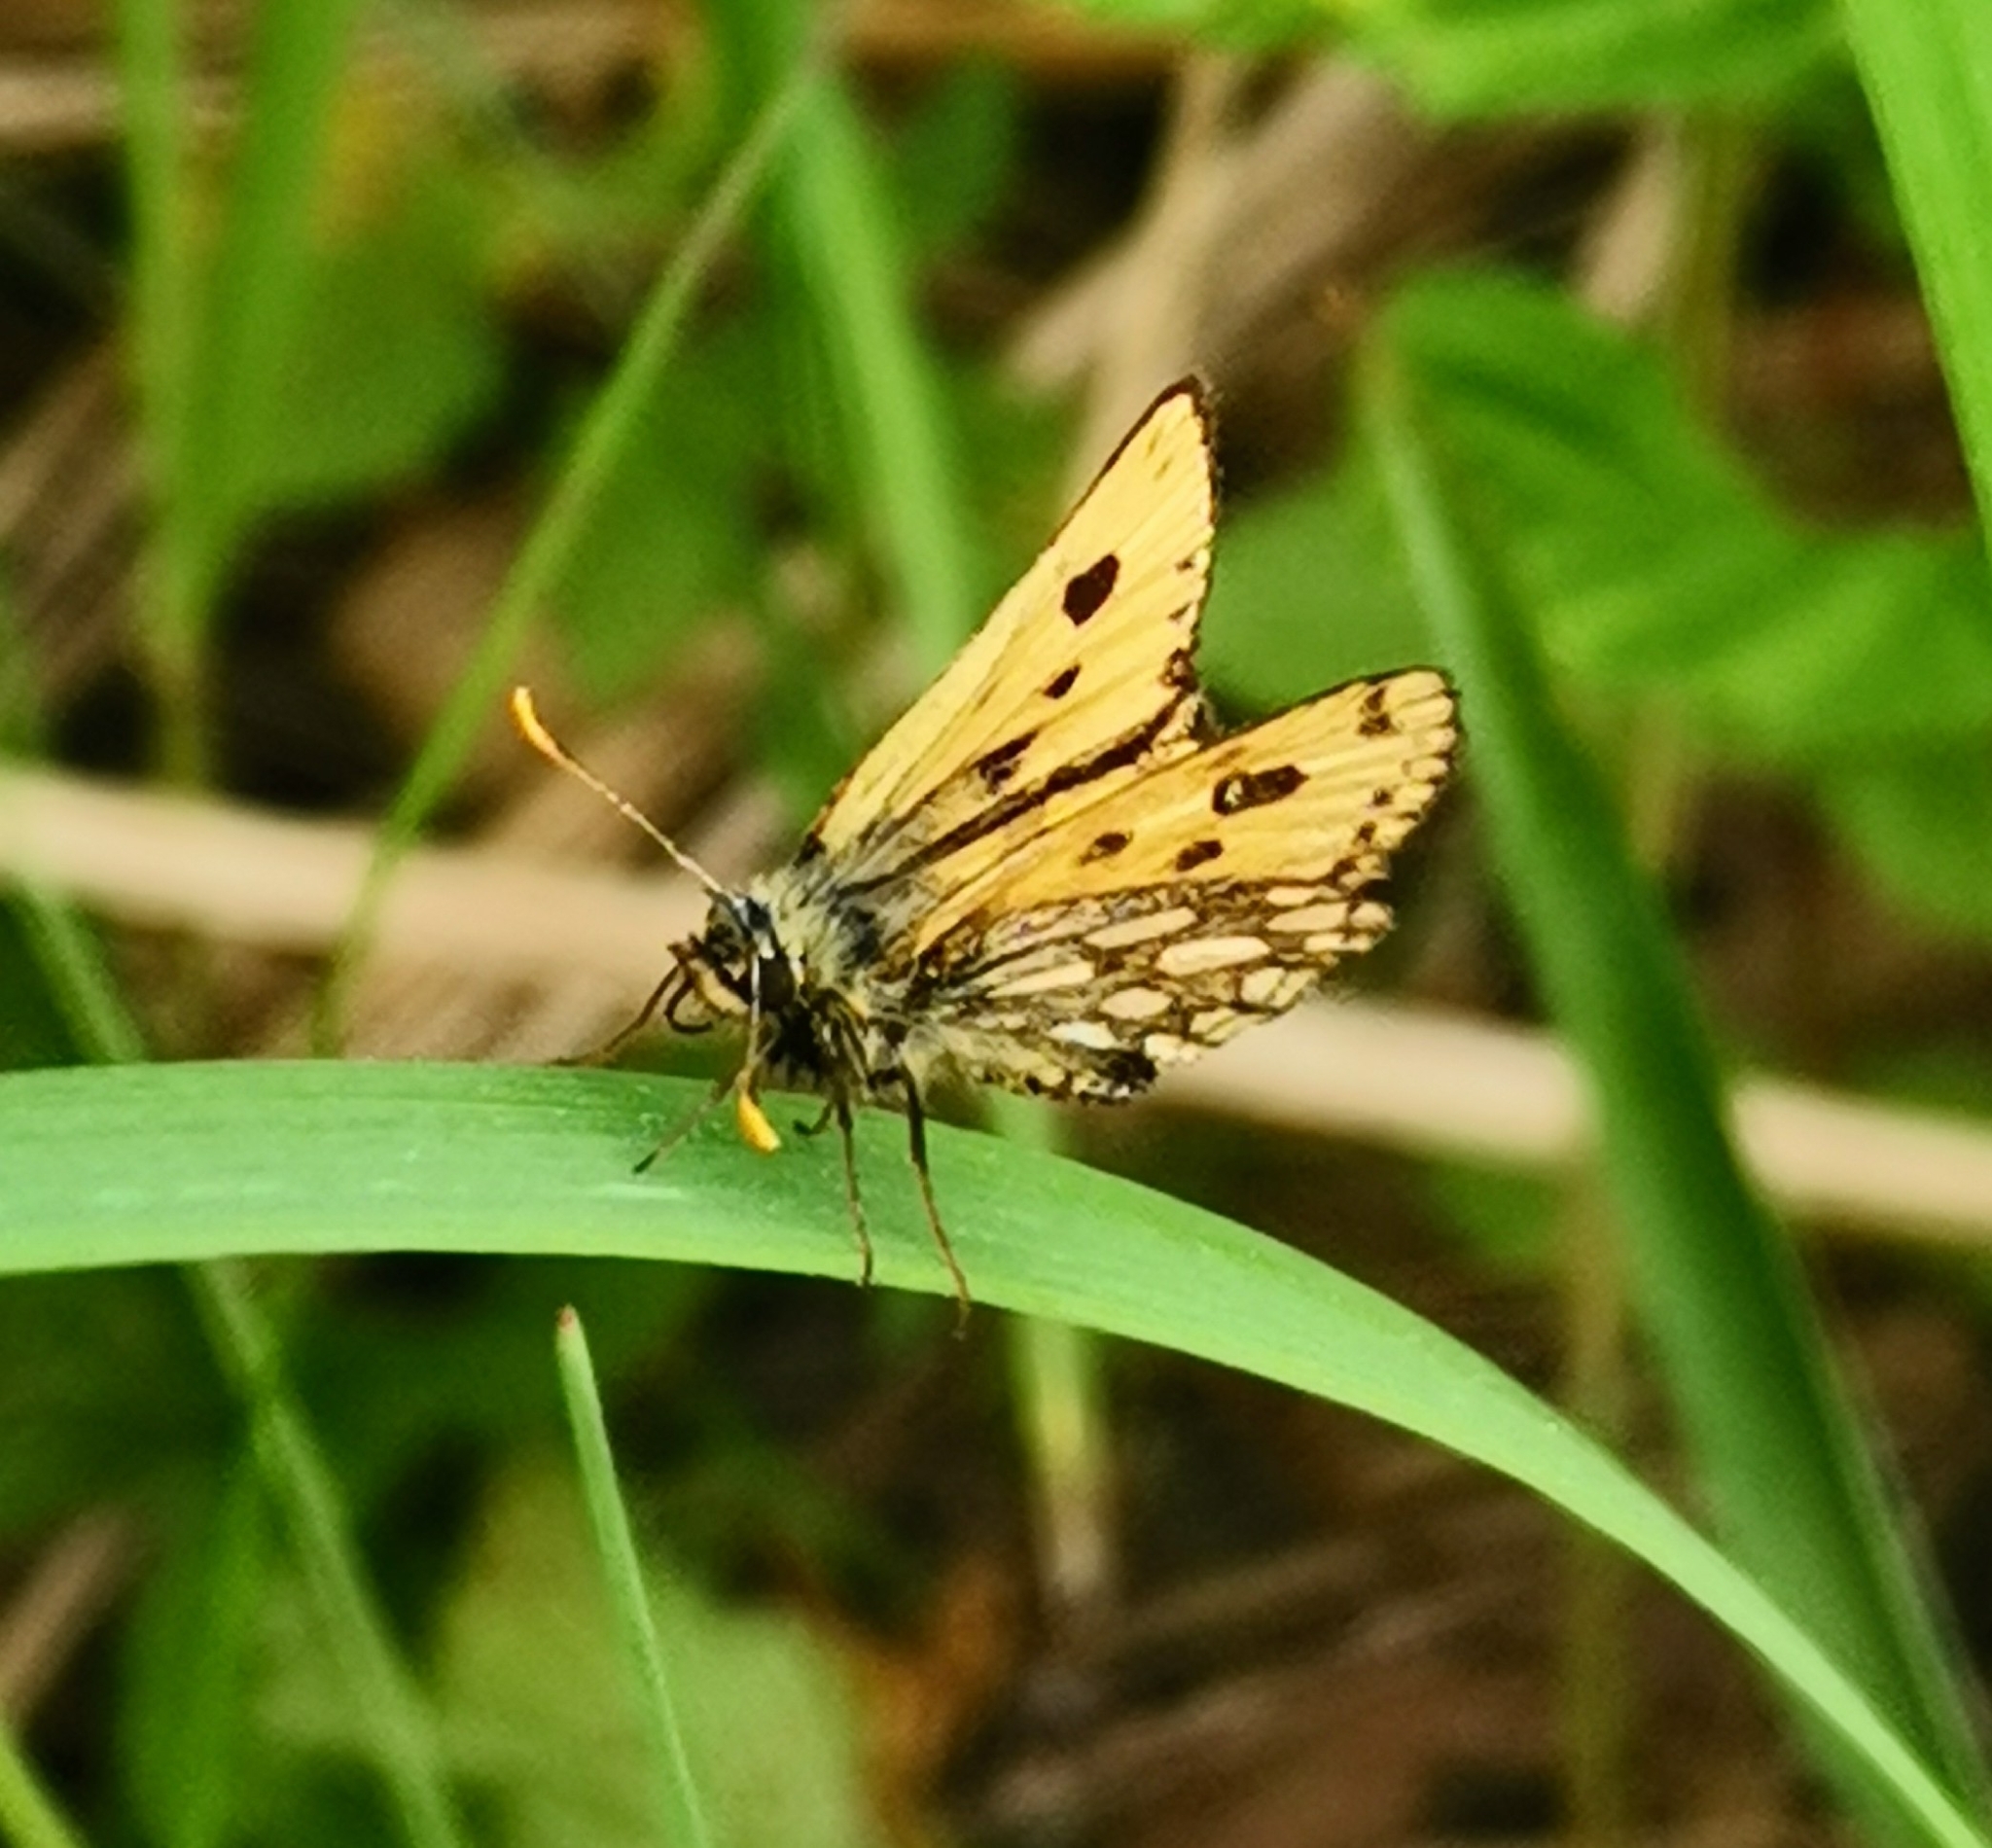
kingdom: Animalia
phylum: Arthropoda
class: Insecta
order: Lepidoptera
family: Hesperiidae
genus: Carterocephalus
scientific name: Carterocephalus silvicola
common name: Northern chequered skipper
